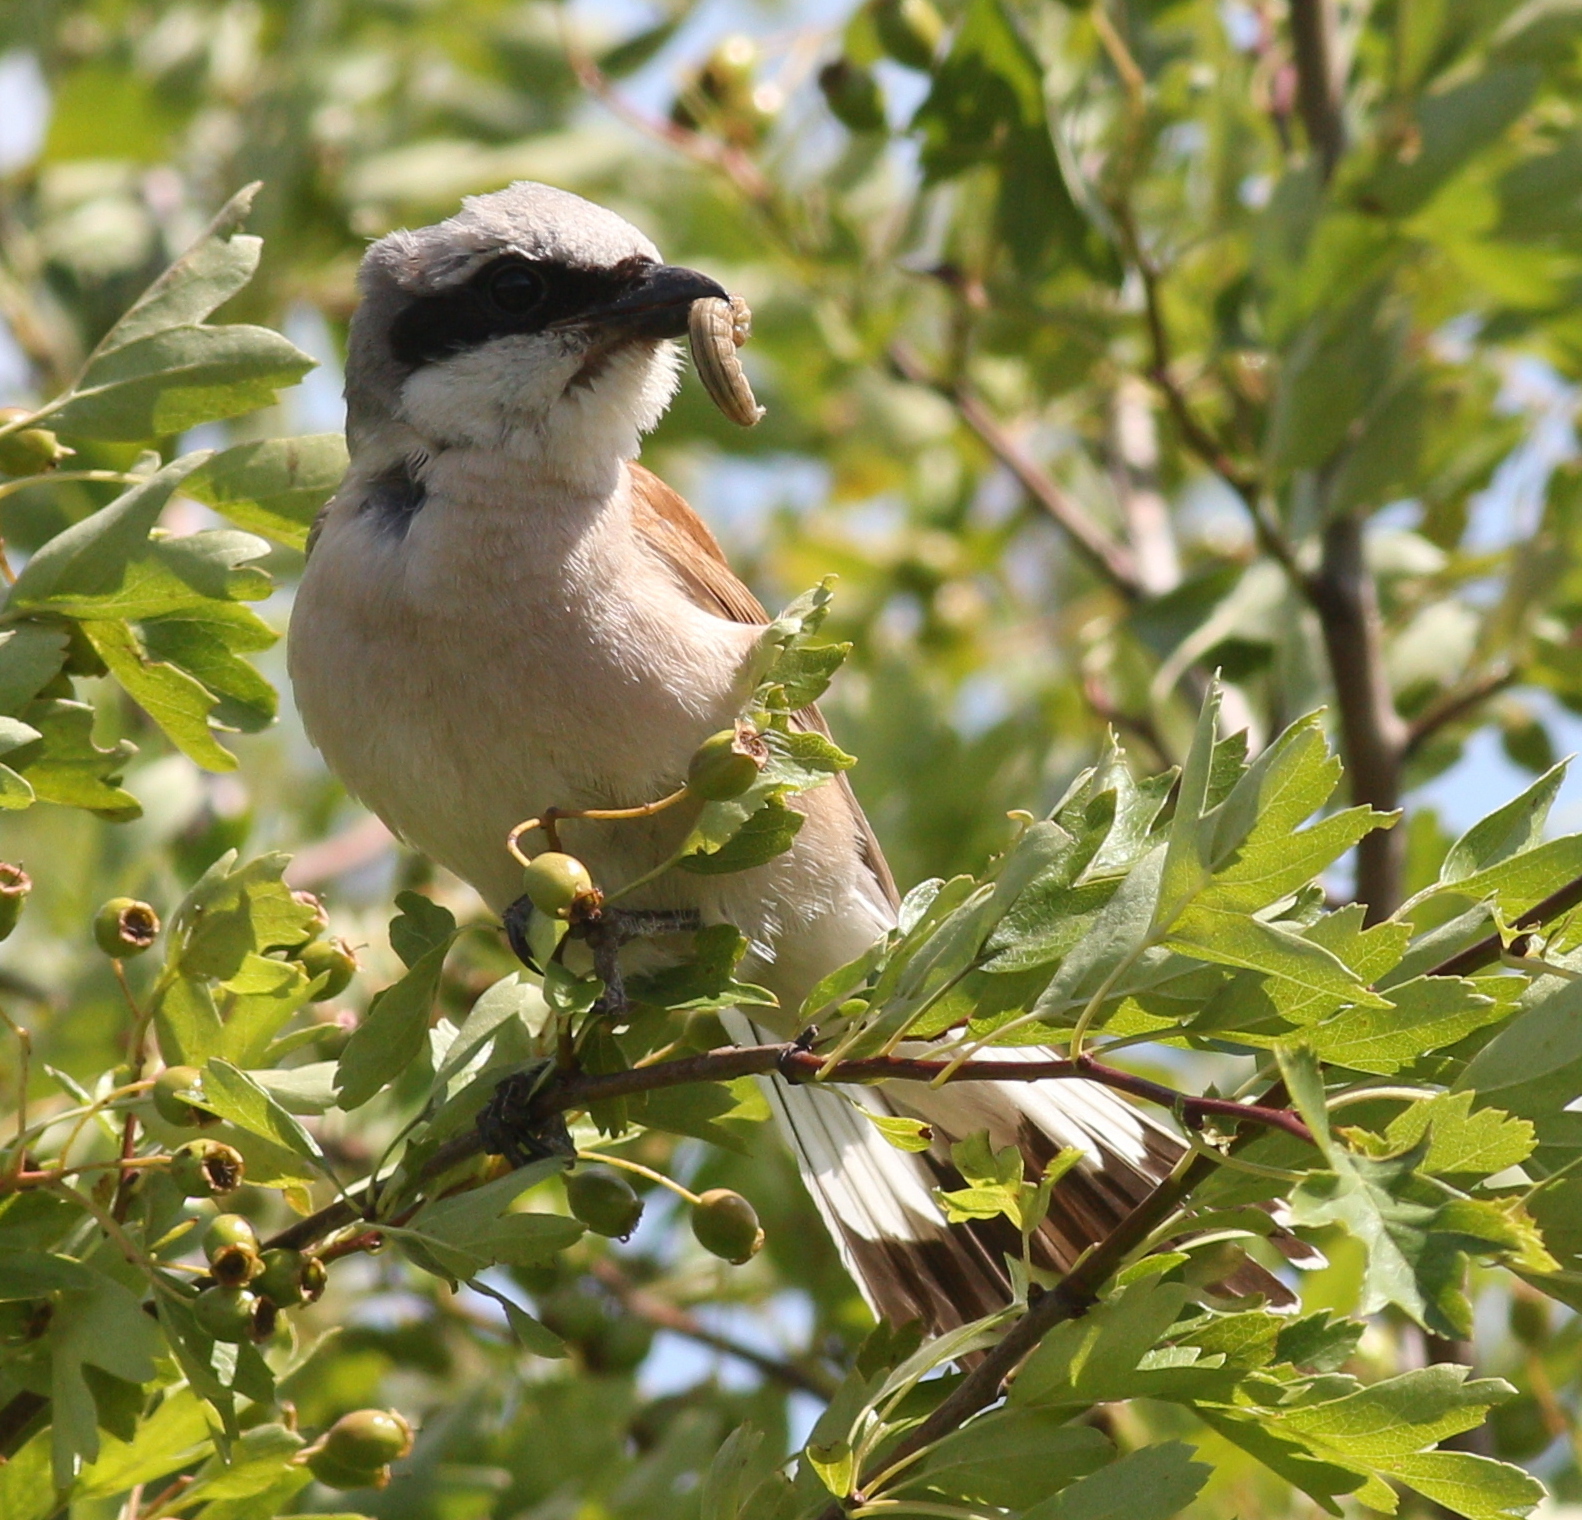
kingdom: Animalia
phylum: Chordata
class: Aves
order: Passeriformes
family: Laniidae
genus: Lanius
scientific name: Lanius collurio
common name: Red-backed shrike
